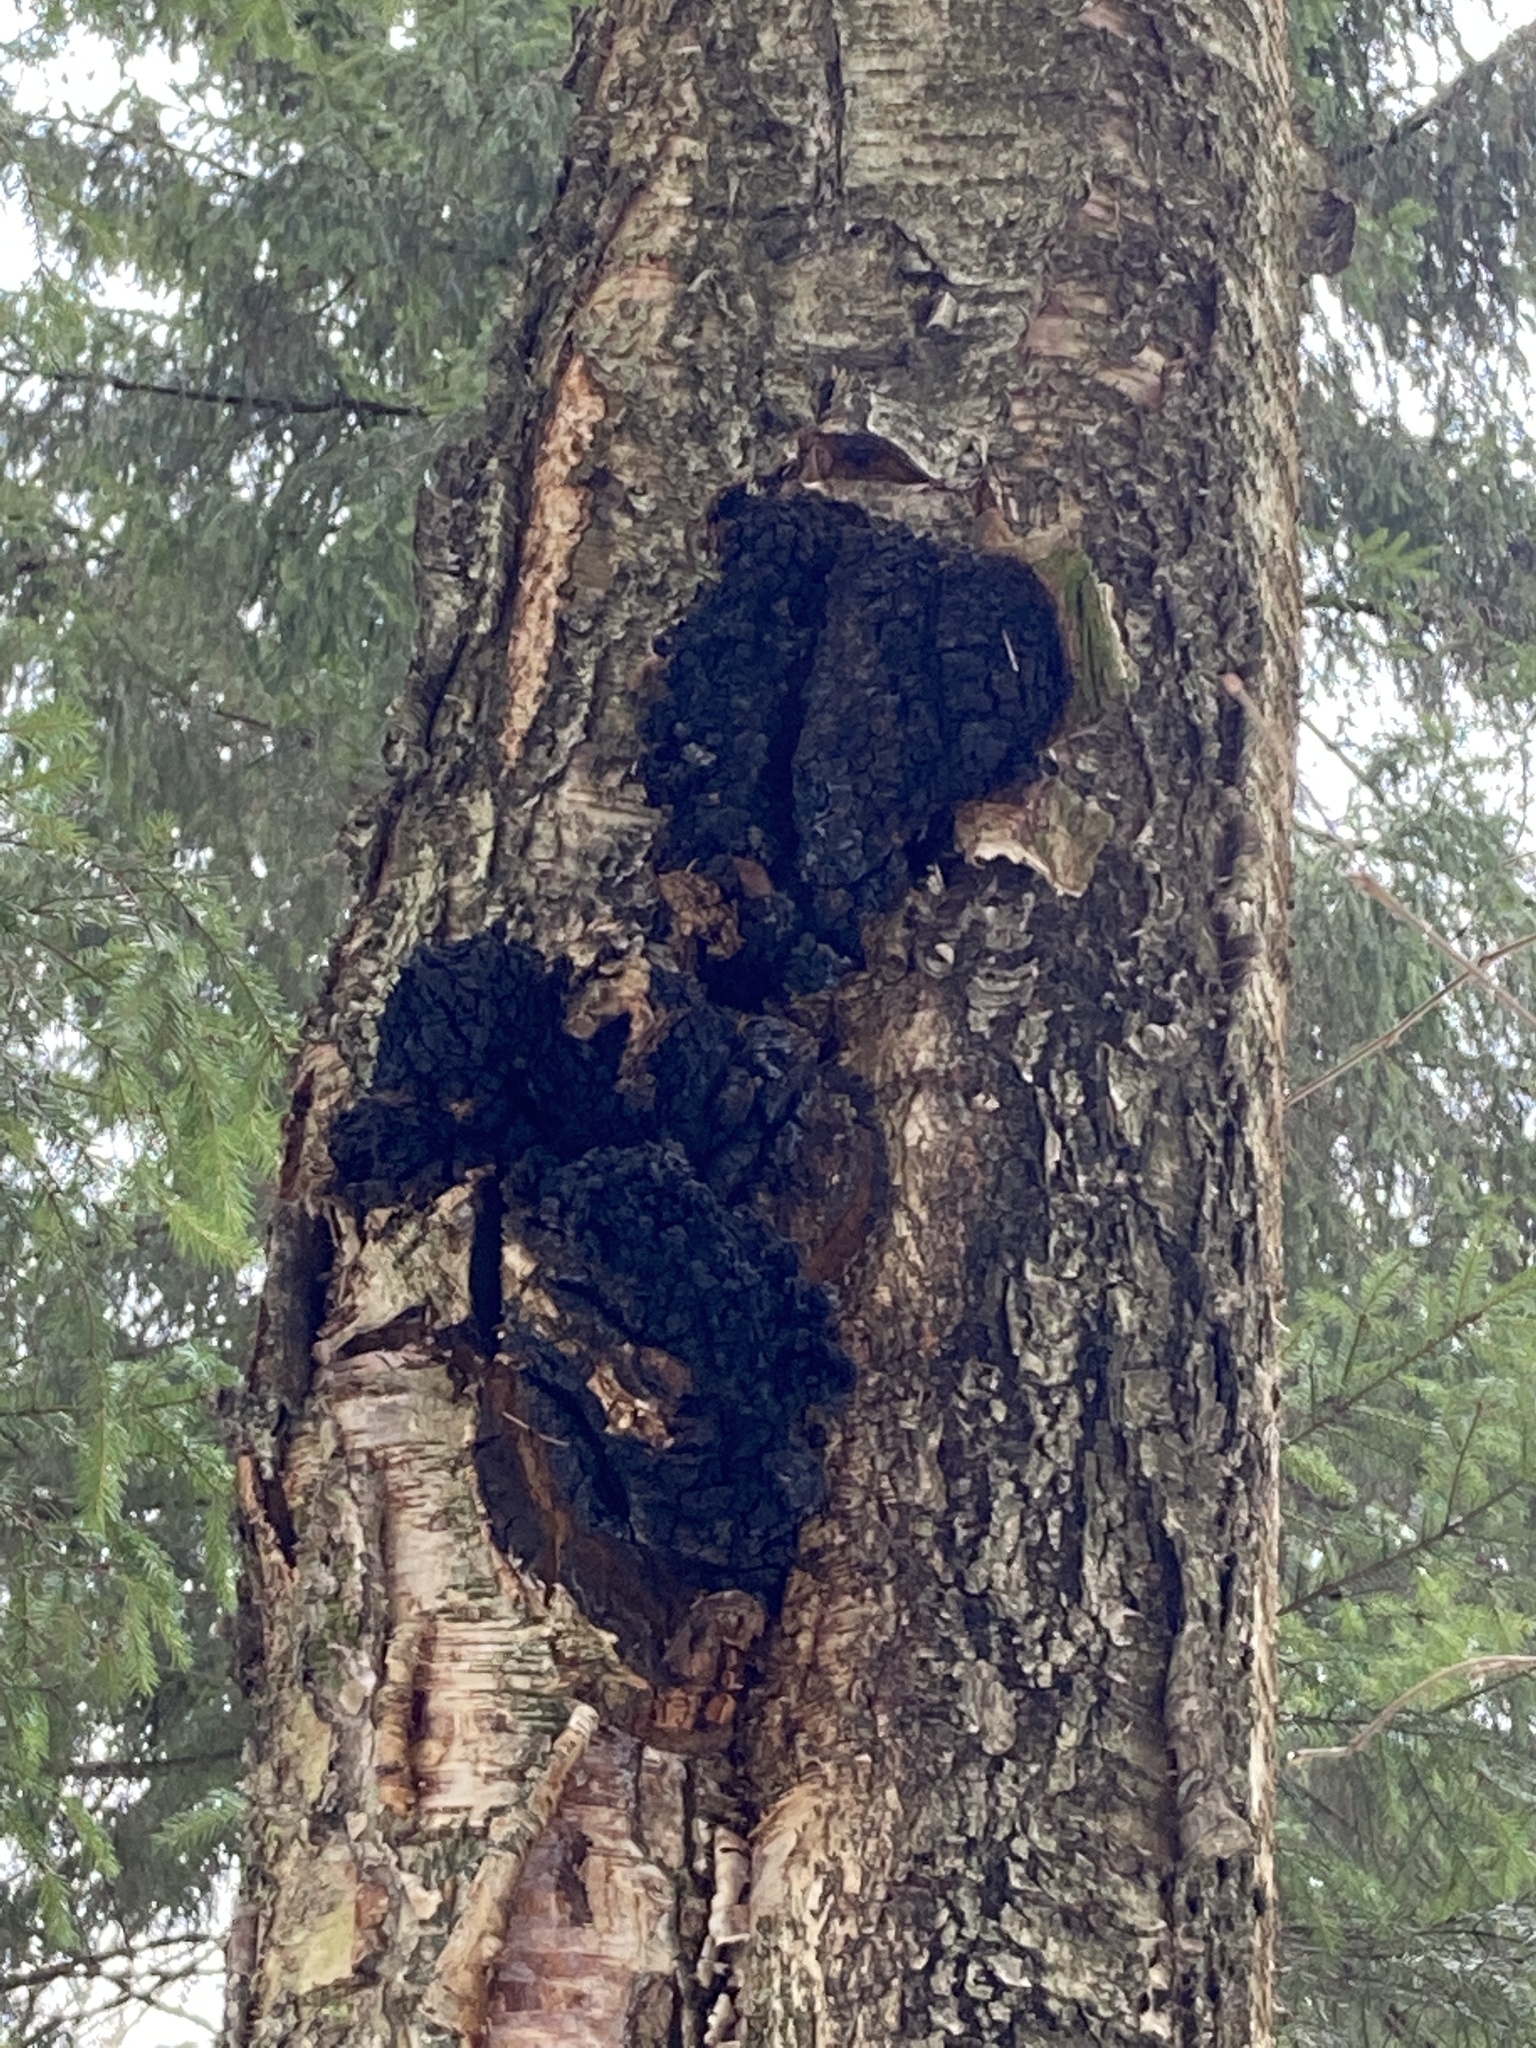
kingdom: Fungi
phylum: Basidiomycota
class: Agaricomycetes
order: Hymenochaetales
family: Hymenochaetaceae
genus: Inonotus
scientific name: Inonotus obliquus
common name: Chaga
